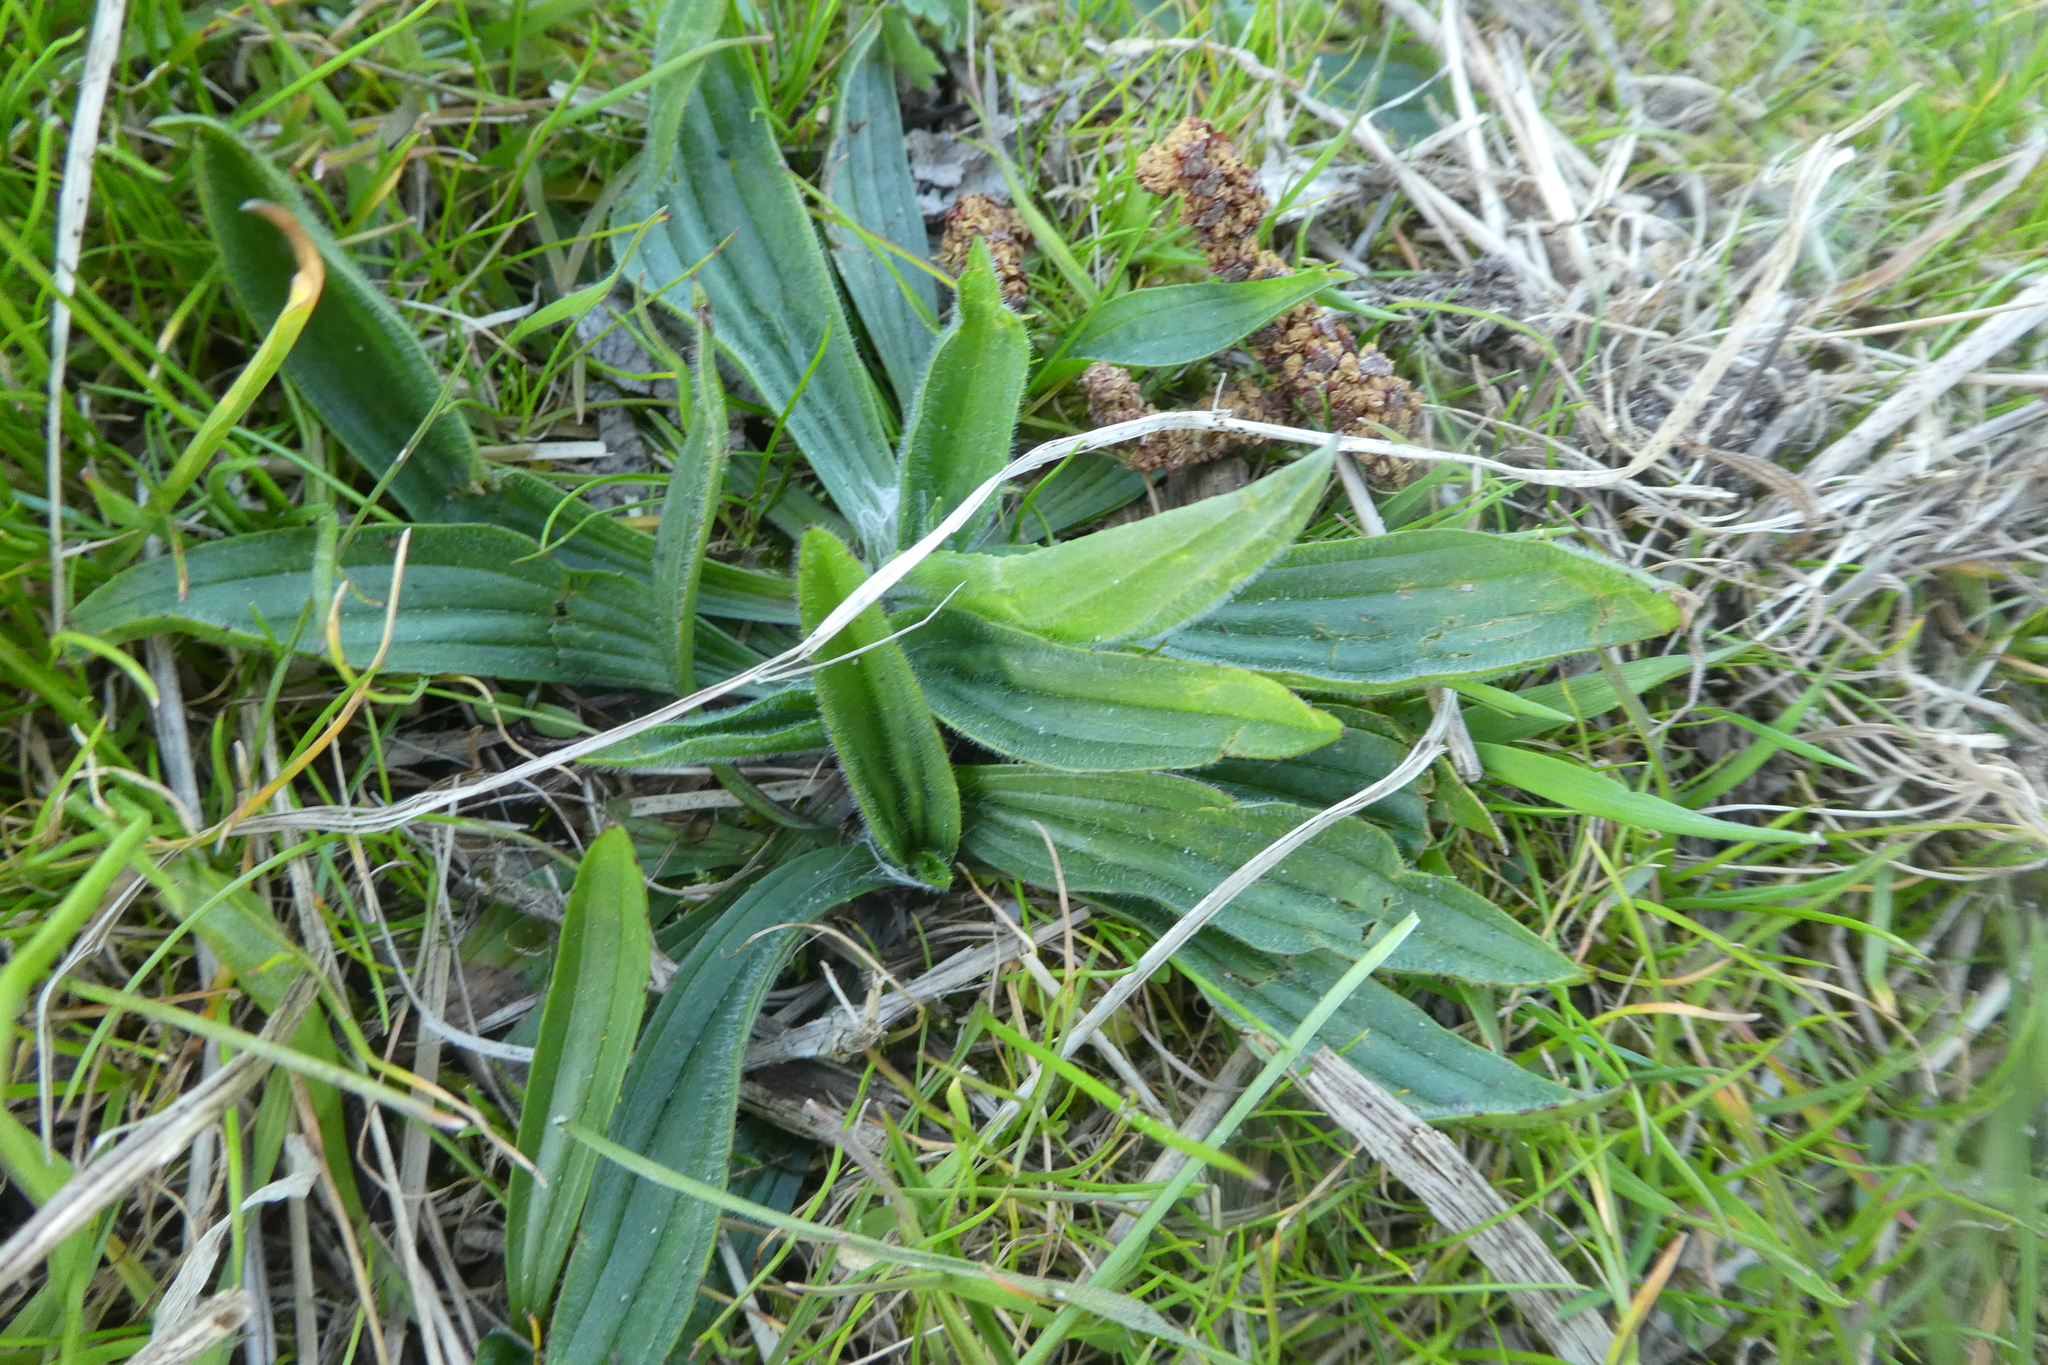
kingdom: Plantae
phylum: Tracheophyta
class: Magnoliopsida
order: Lamiales
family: Plantaginaceae
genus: Plantago
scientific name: Plantago lanceolata
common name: Ribwort plantain
